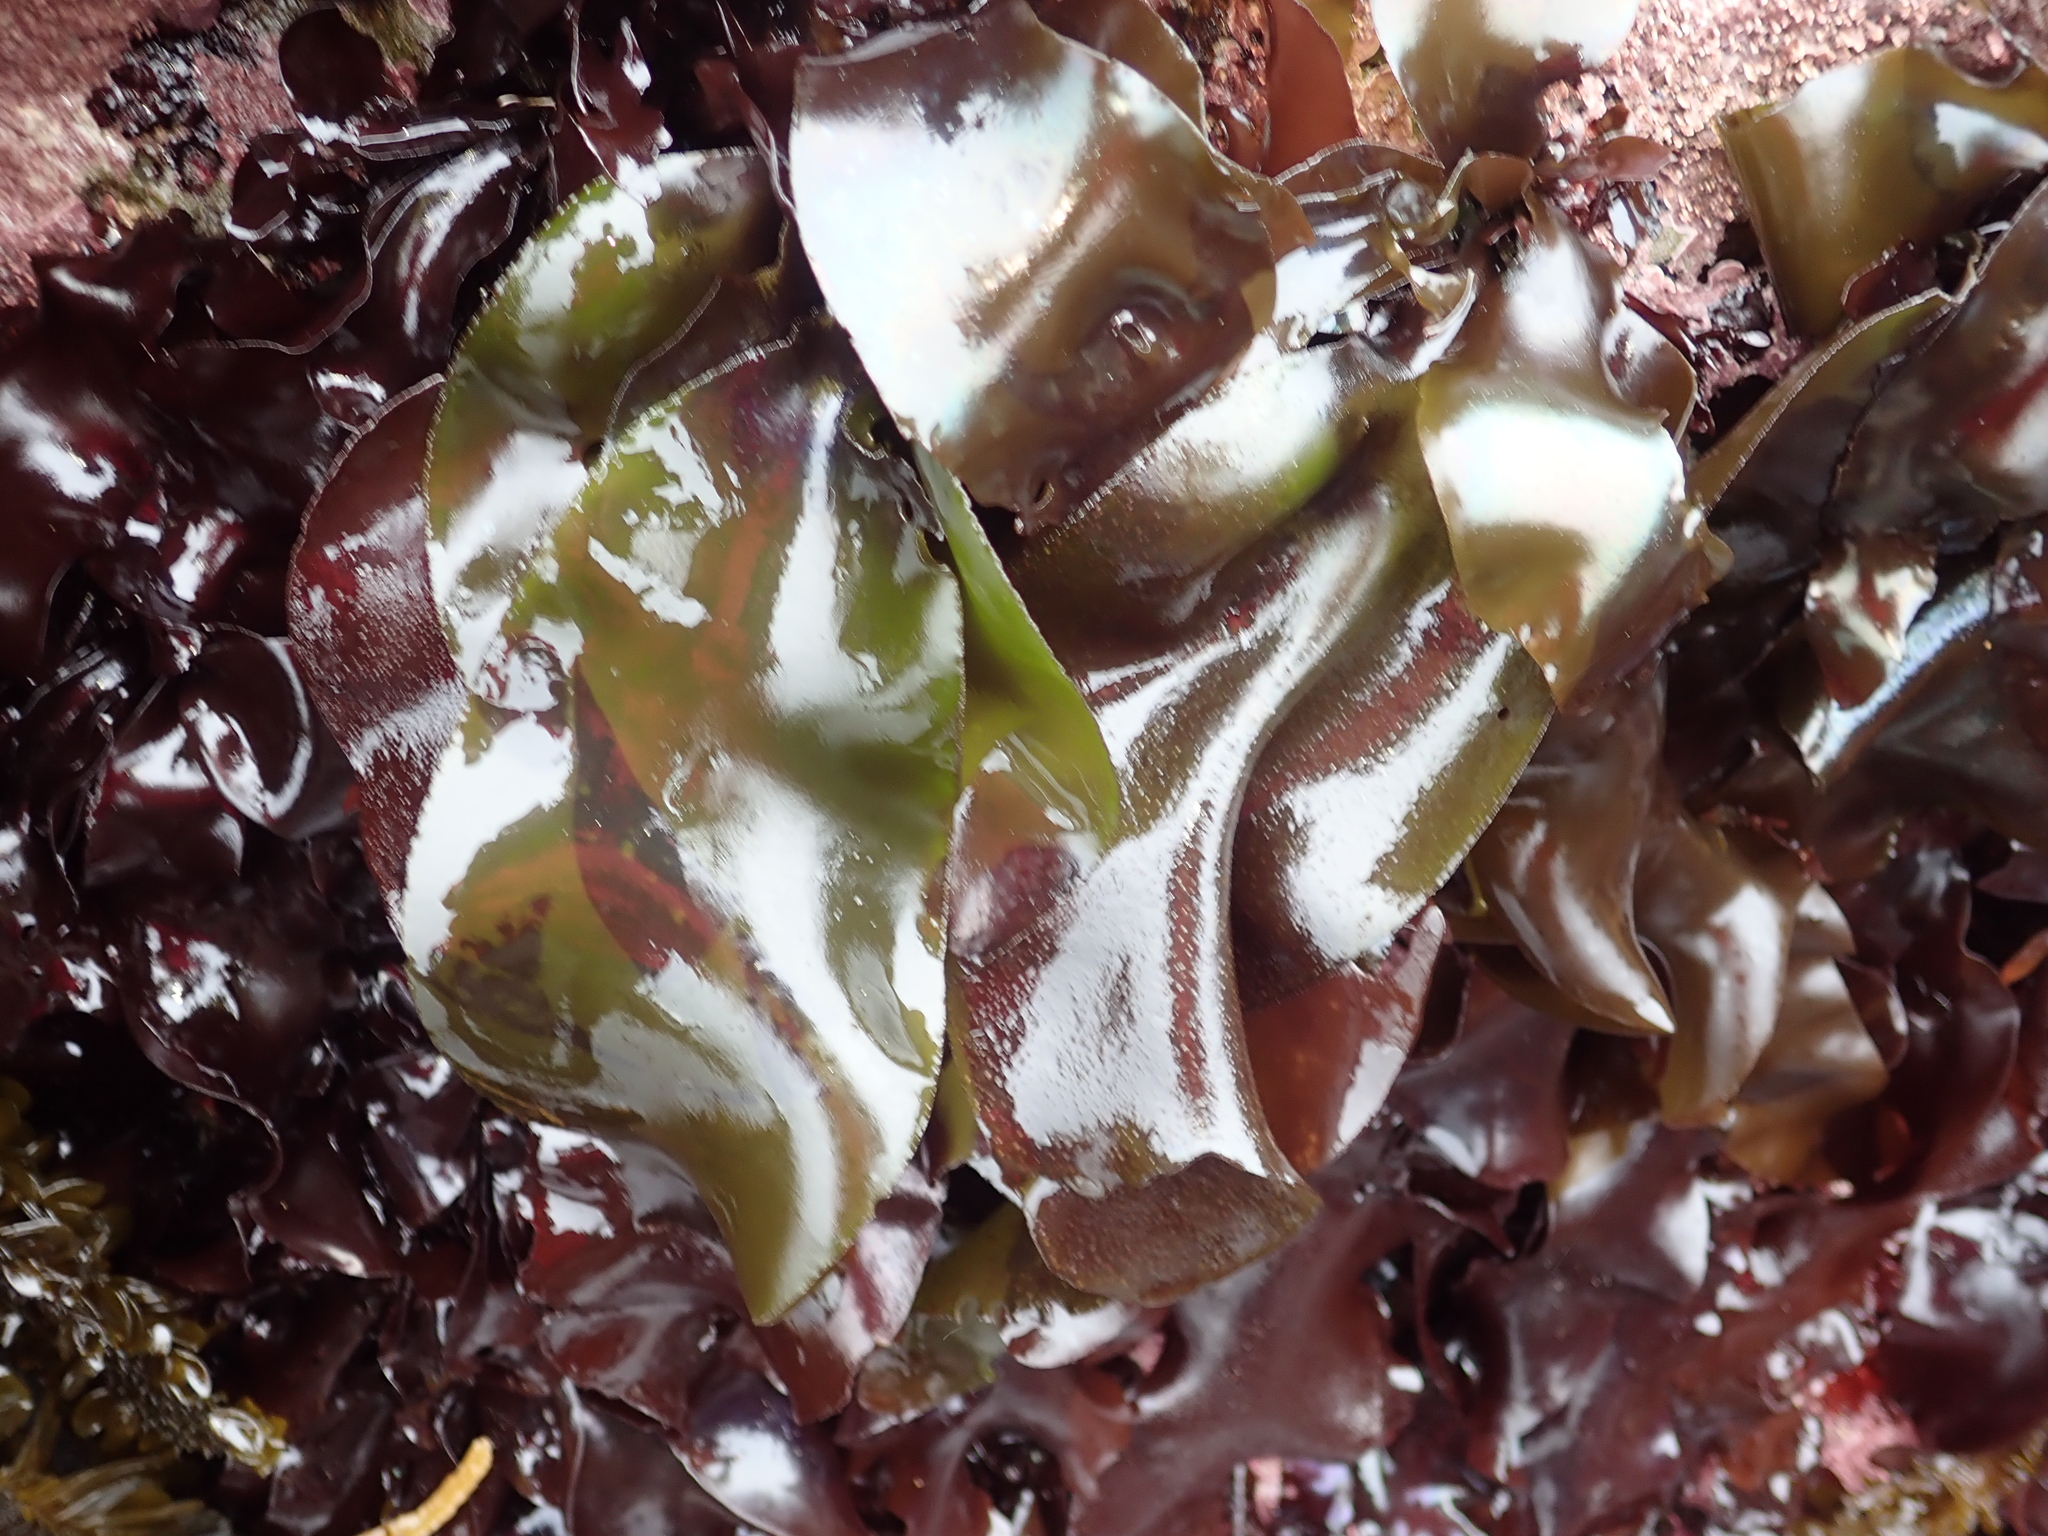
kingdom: Plantae
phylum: Rhodophyta
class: Florideophyceae
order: Gigartinales
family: Gigartinaceae
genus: Mazzaella
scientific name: Mazzaella flaccida
